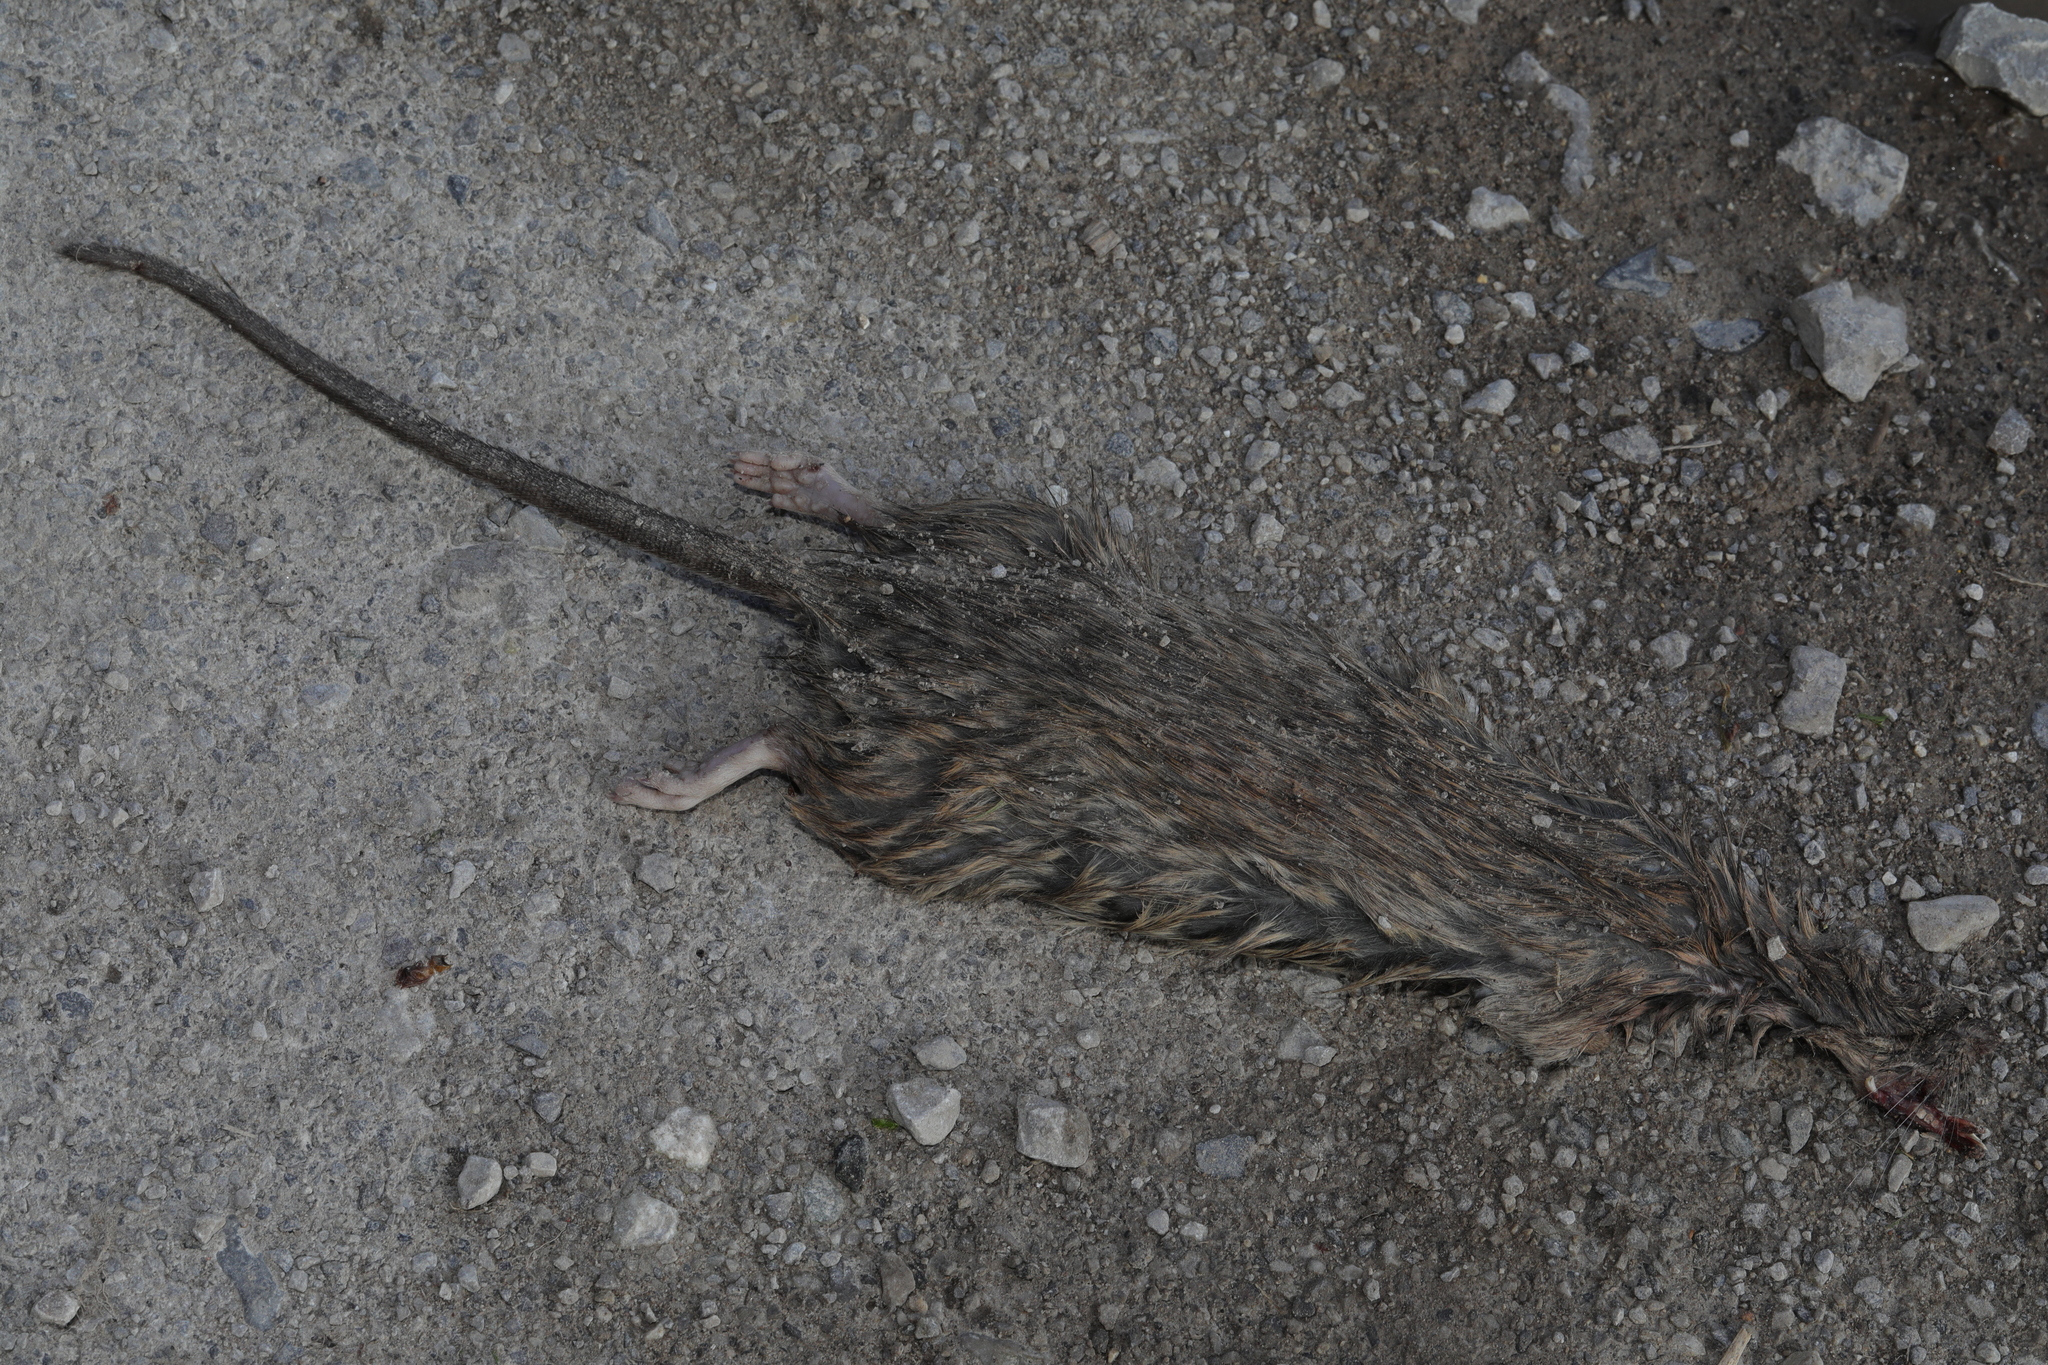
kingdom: Animalia
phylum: Chordata
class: Mammalia
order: Rodentia
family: Muridae
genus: Rattus
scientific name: Rattus norvegicus
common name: Brown rat
